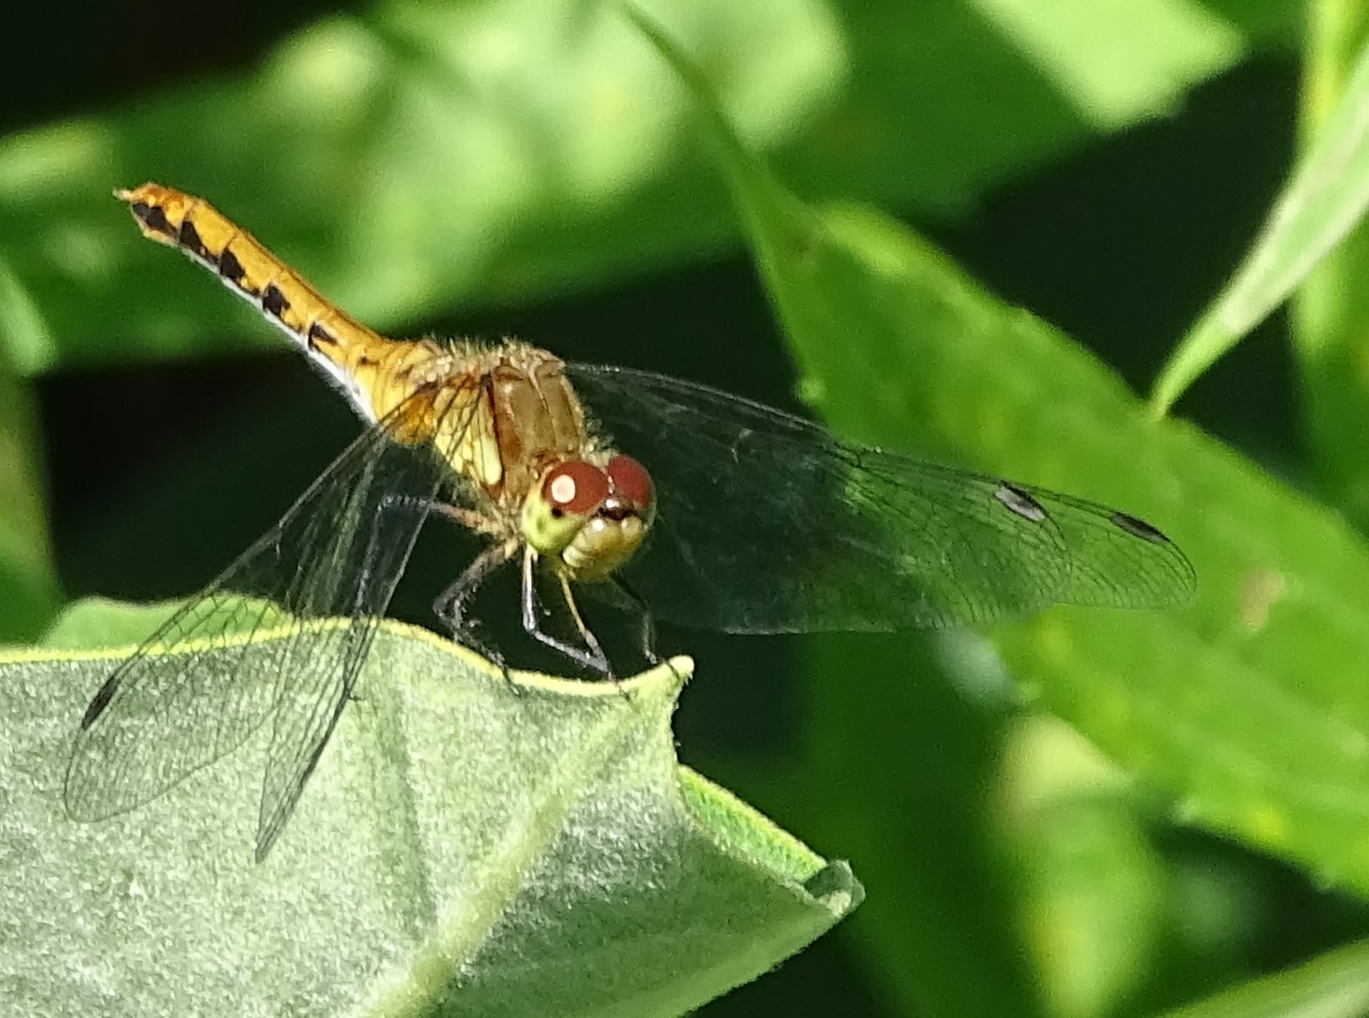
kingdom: Animalia
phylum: Arthropoda
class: Insecta
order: Odonata
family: Libellulidae
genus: Sympetrum
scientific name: Sympetrum
